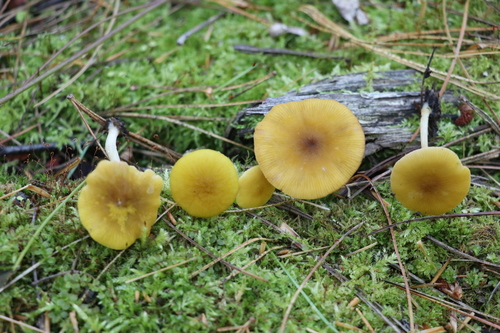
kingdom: Fungi
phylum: Basidiomycota
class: Agaricomycetes
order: Agaricales
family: Pluteaceae
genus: Pluteus
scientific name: Pluteus chrysophlebius
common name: Yellow deer mushroom
